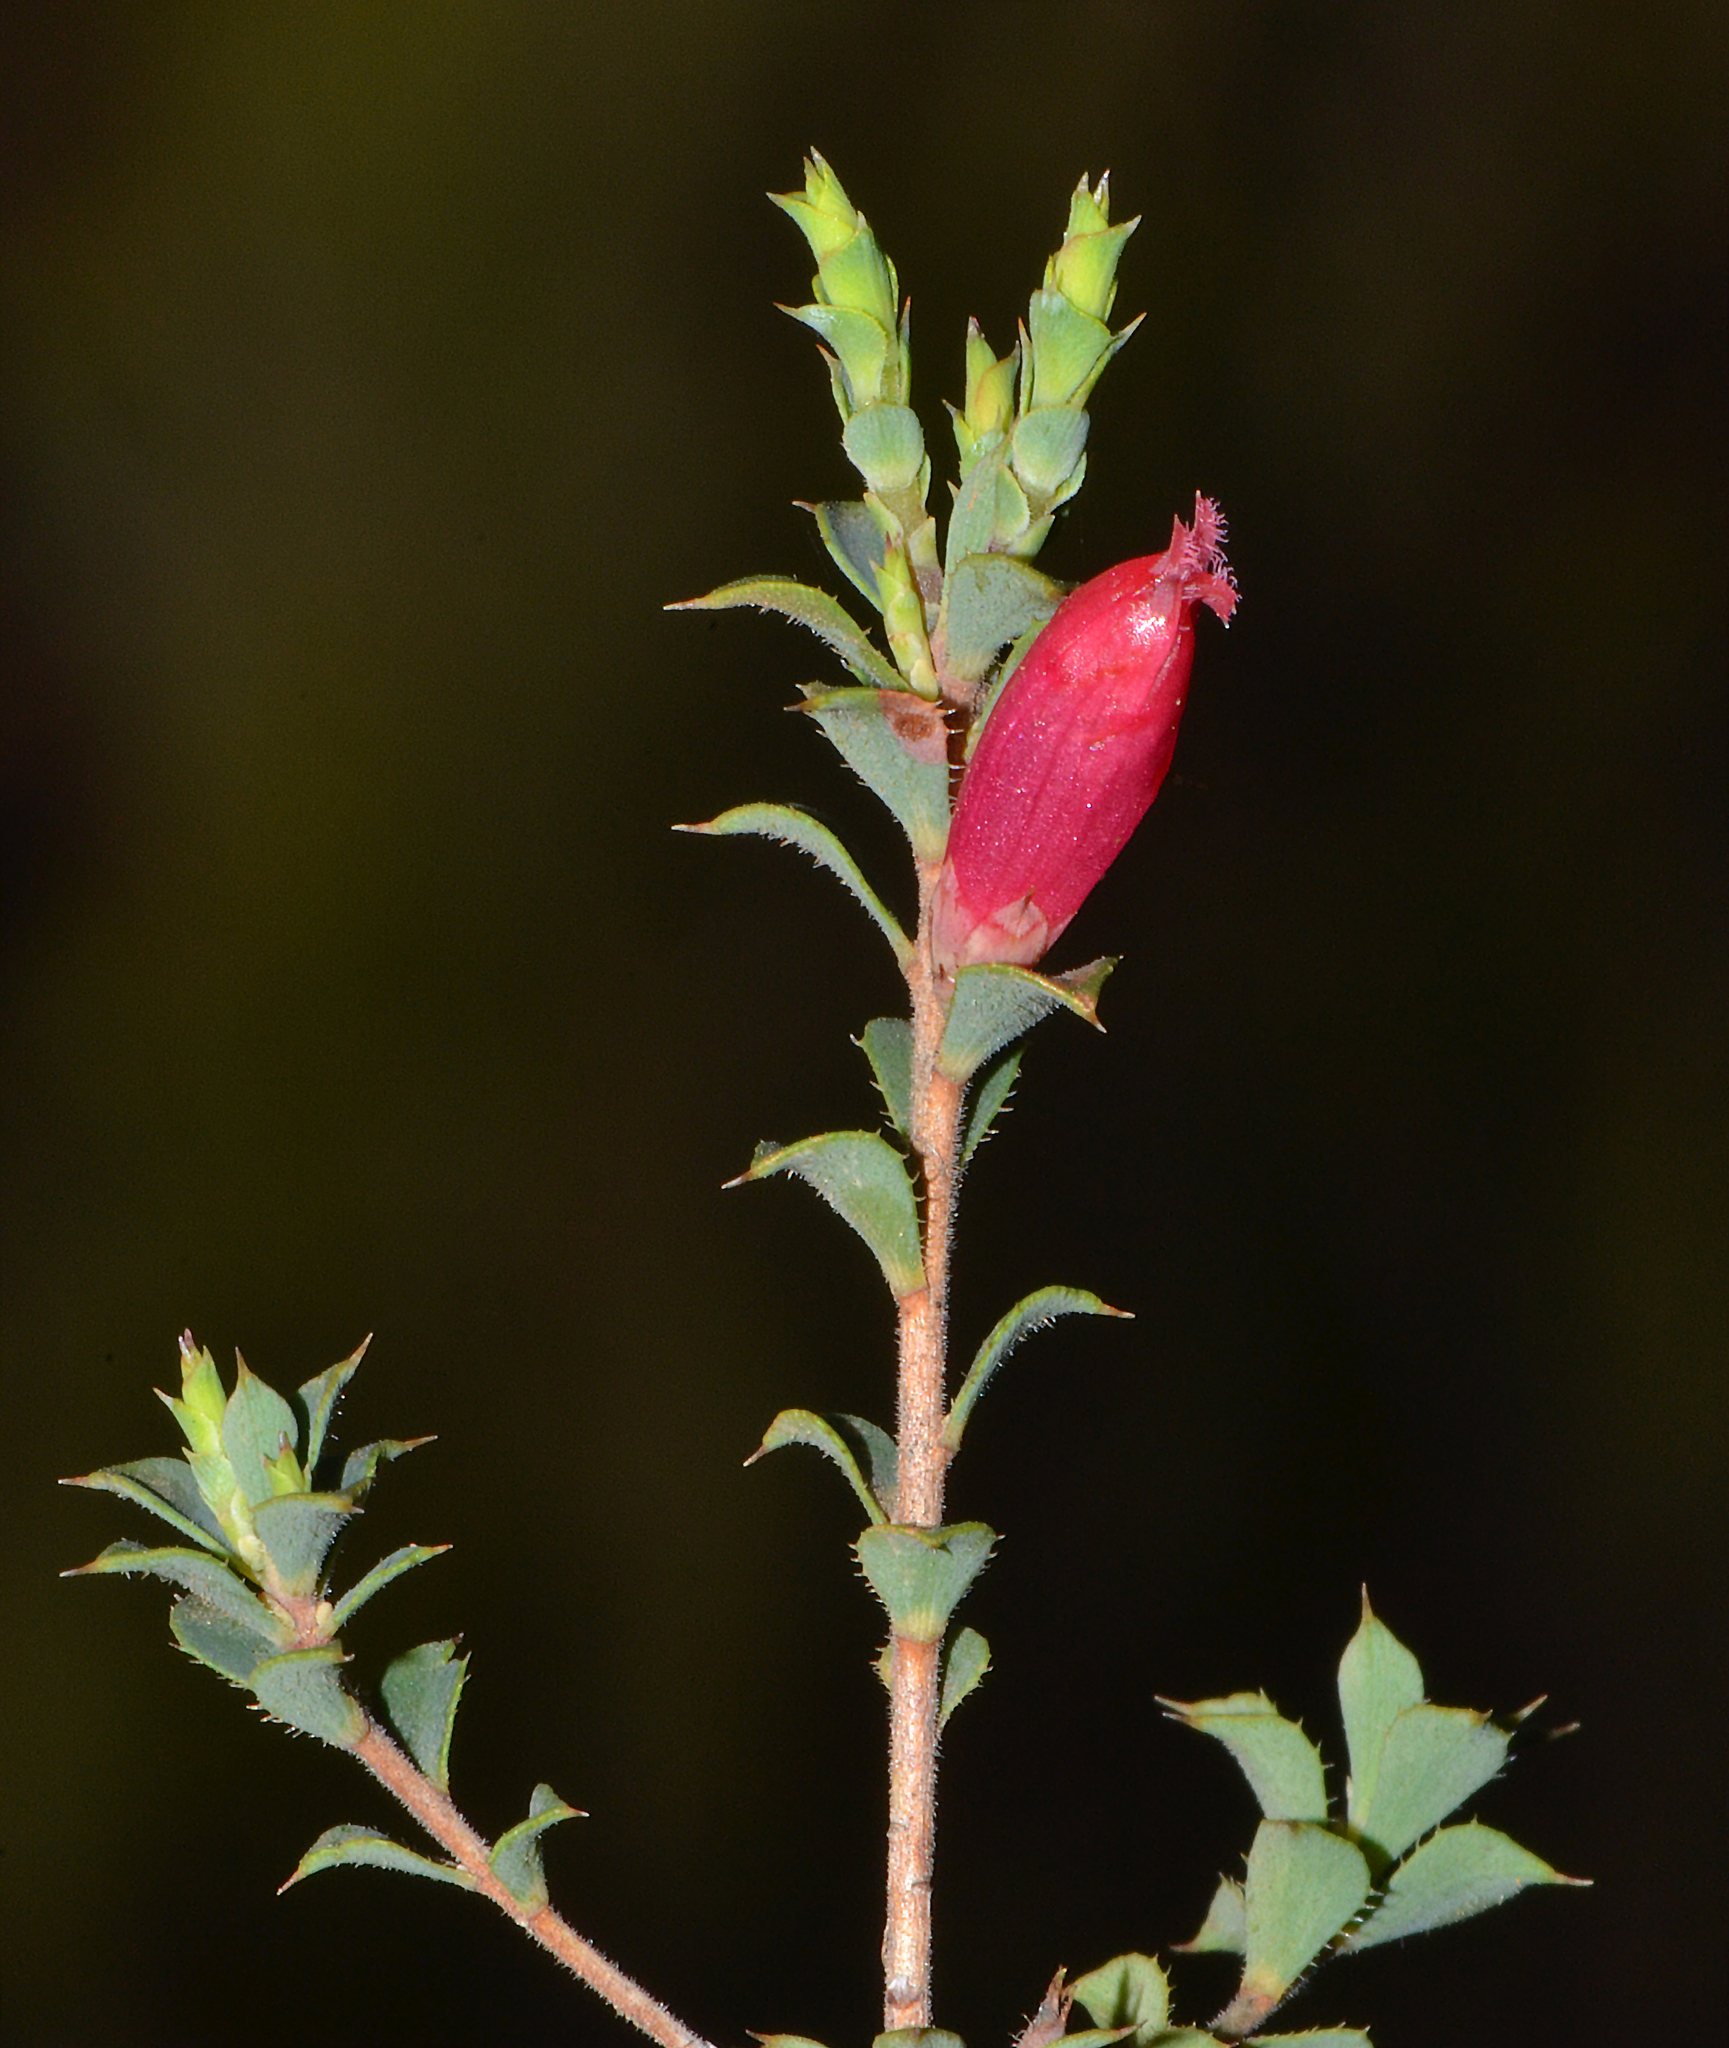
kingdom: Plantae
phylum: Tracheophyta
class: Magnoliopsida
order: Ericales
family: Ericaceae
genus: Styphelia
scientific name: Styphelia serratifolia
